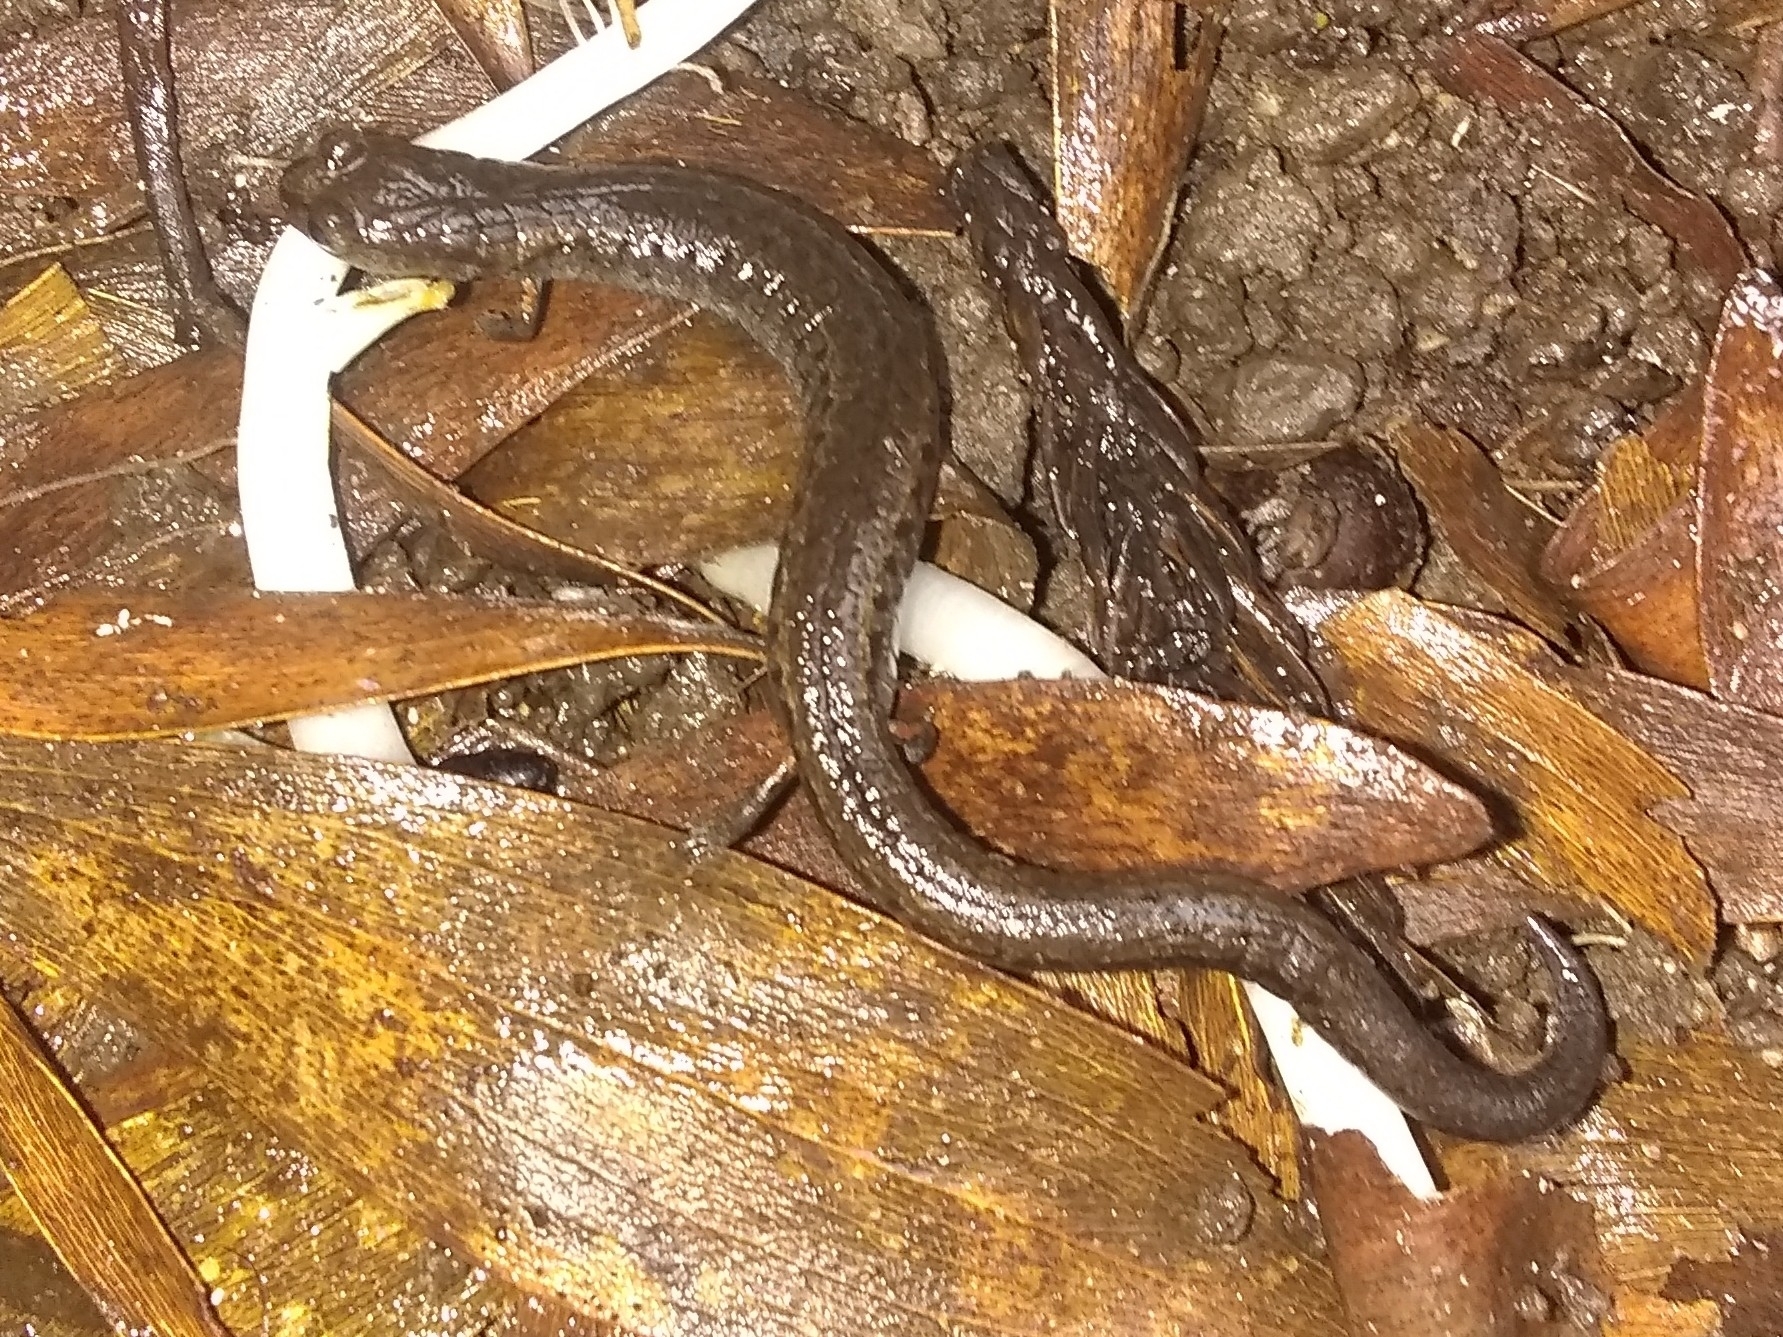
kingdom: Animalia
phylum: Chordata
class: Amphibia
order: Caudata
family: Plethodontidae
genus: Batrachoseps
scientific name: Batrachoseps attenuatus
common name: California slender salamander
